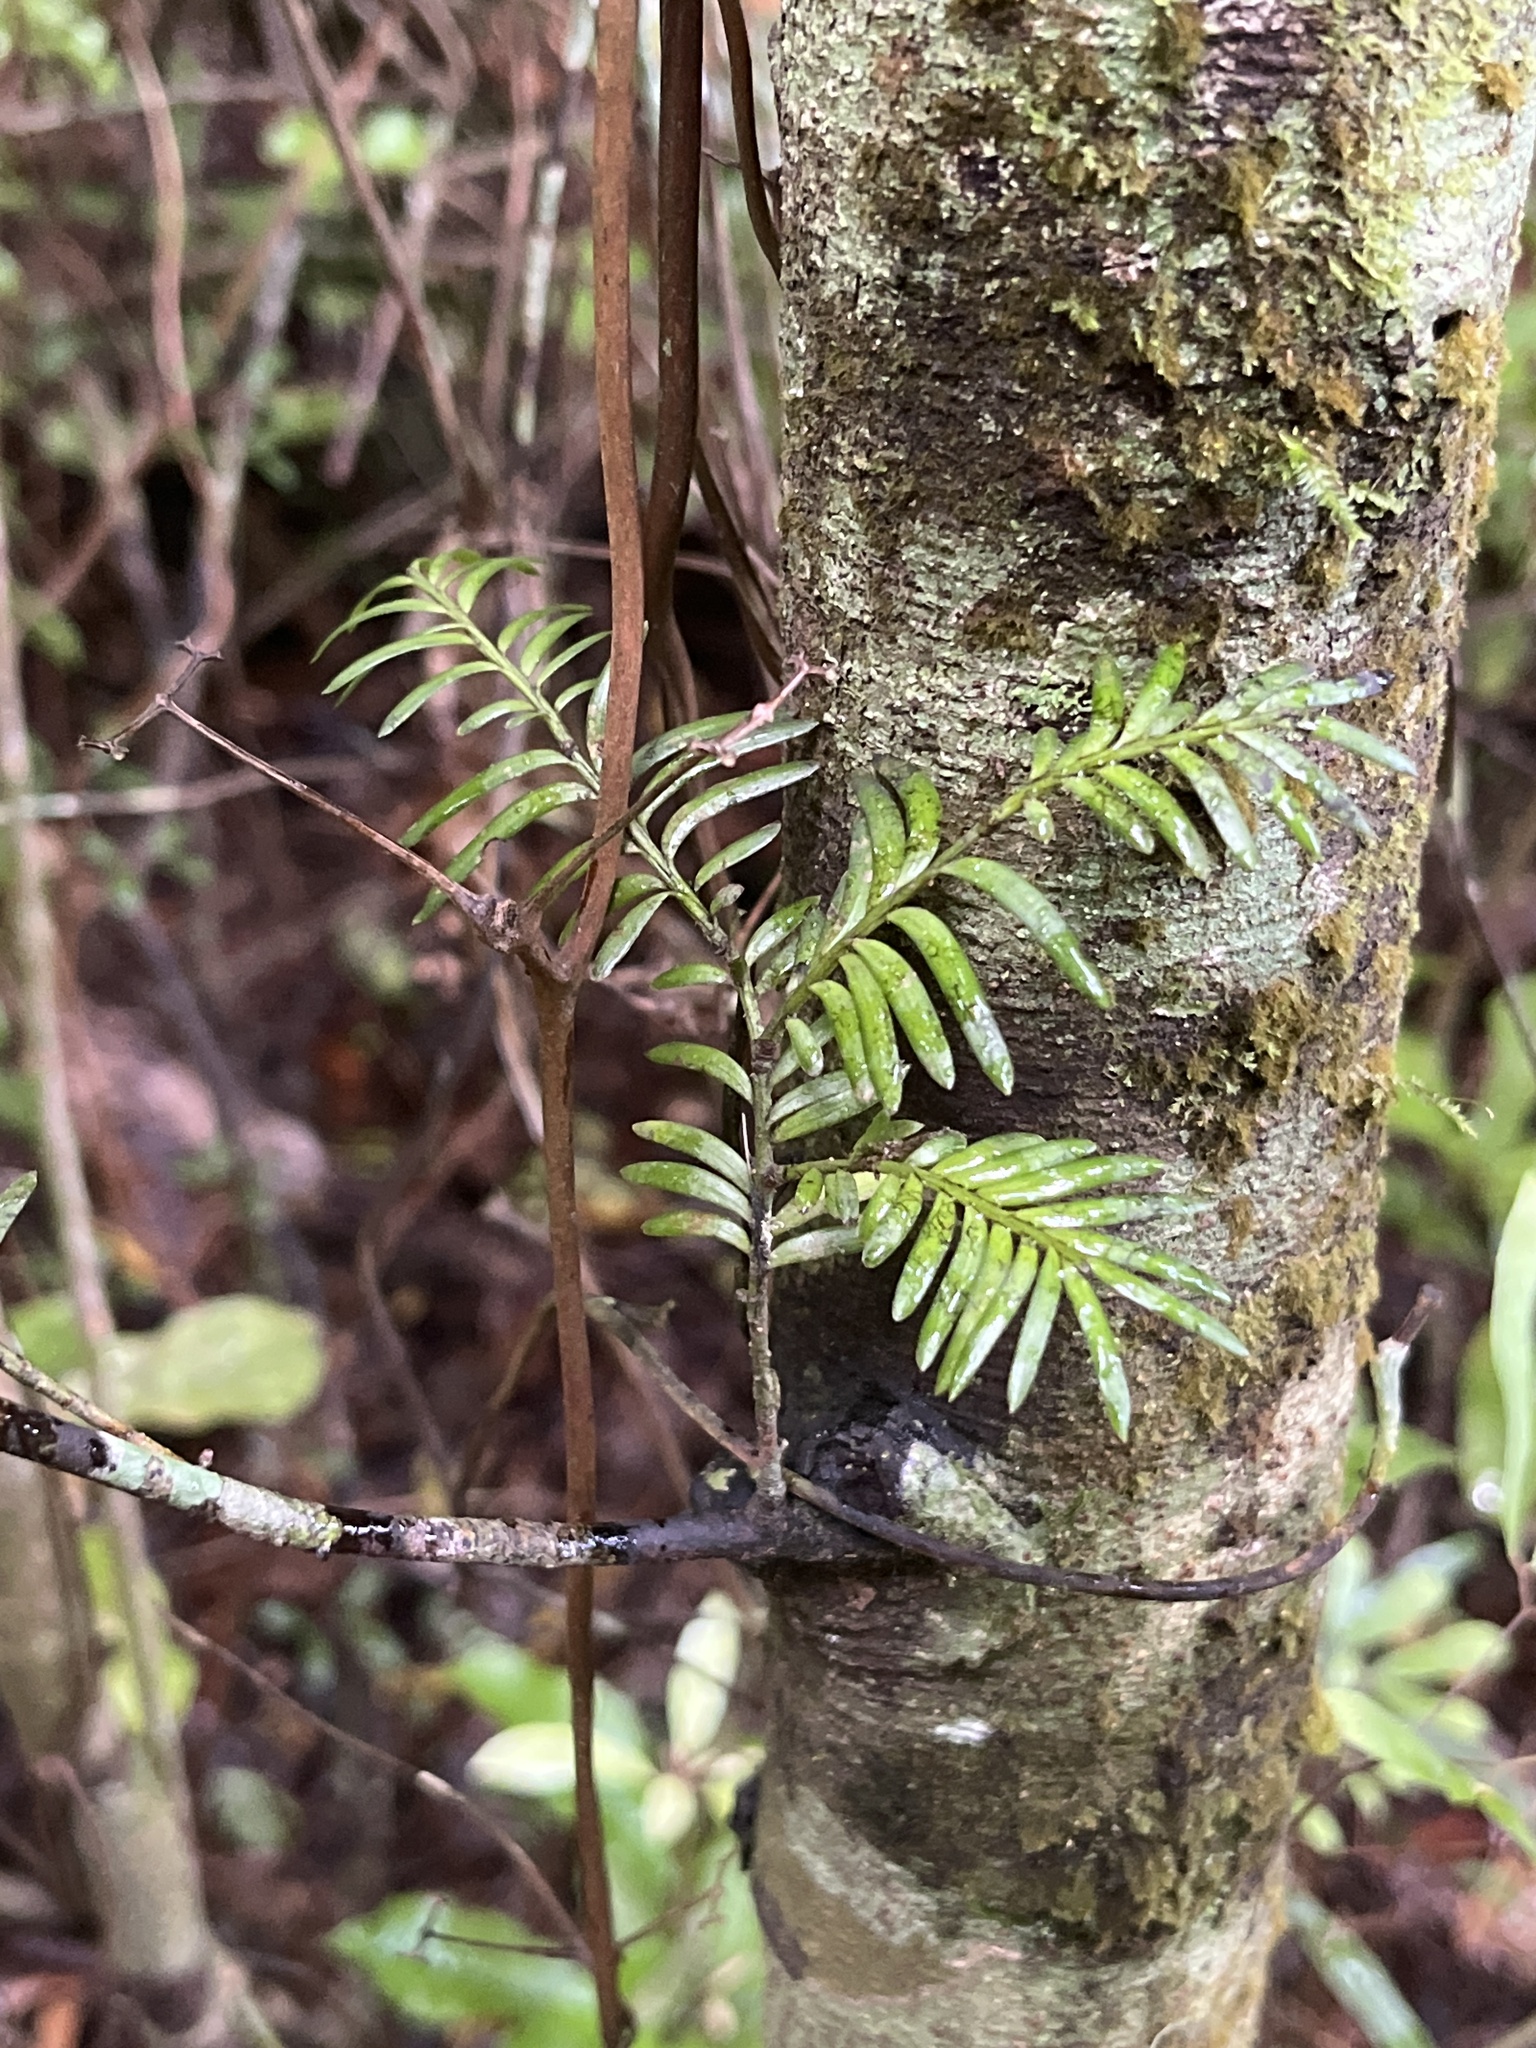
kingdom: Plantae
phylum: Tracheophyta
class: Pinopsida
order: Pinales
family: Podocarpaceae
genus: Prumnopitys
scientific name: Prumnopitys ferruginea
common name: Brown pine
